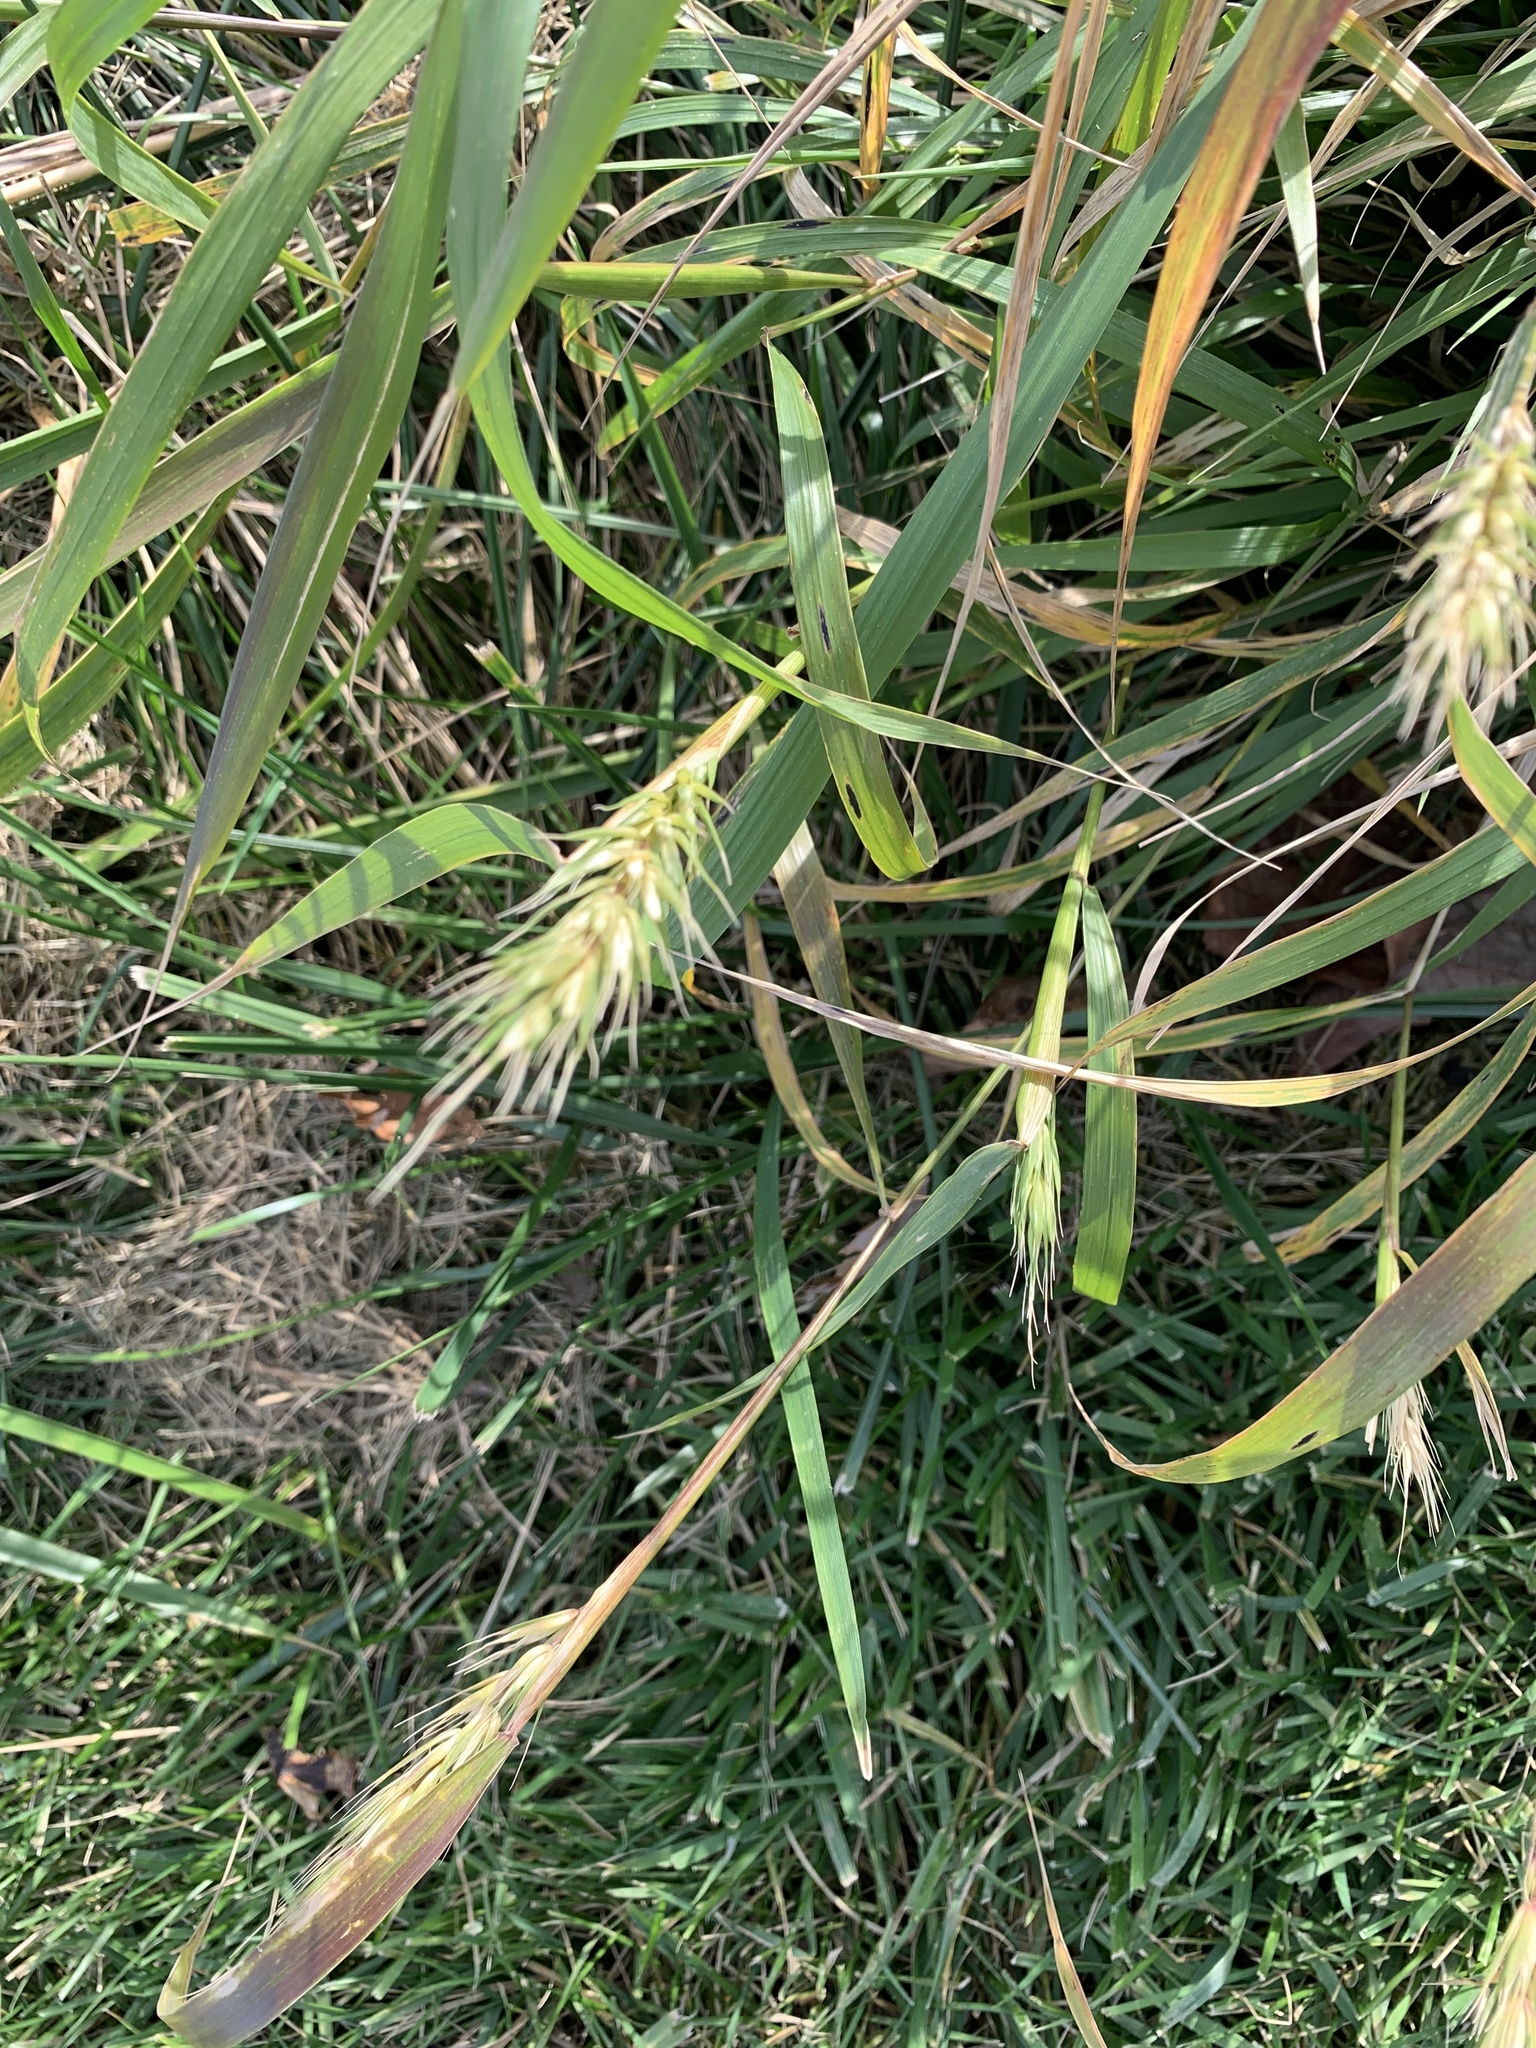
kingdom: Plantae
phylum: Tracheophyta
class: Liliopsida
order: Poales
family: Poaceae
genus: Elymus
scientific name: Elymus virginicus
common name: Common eastern wildrye
